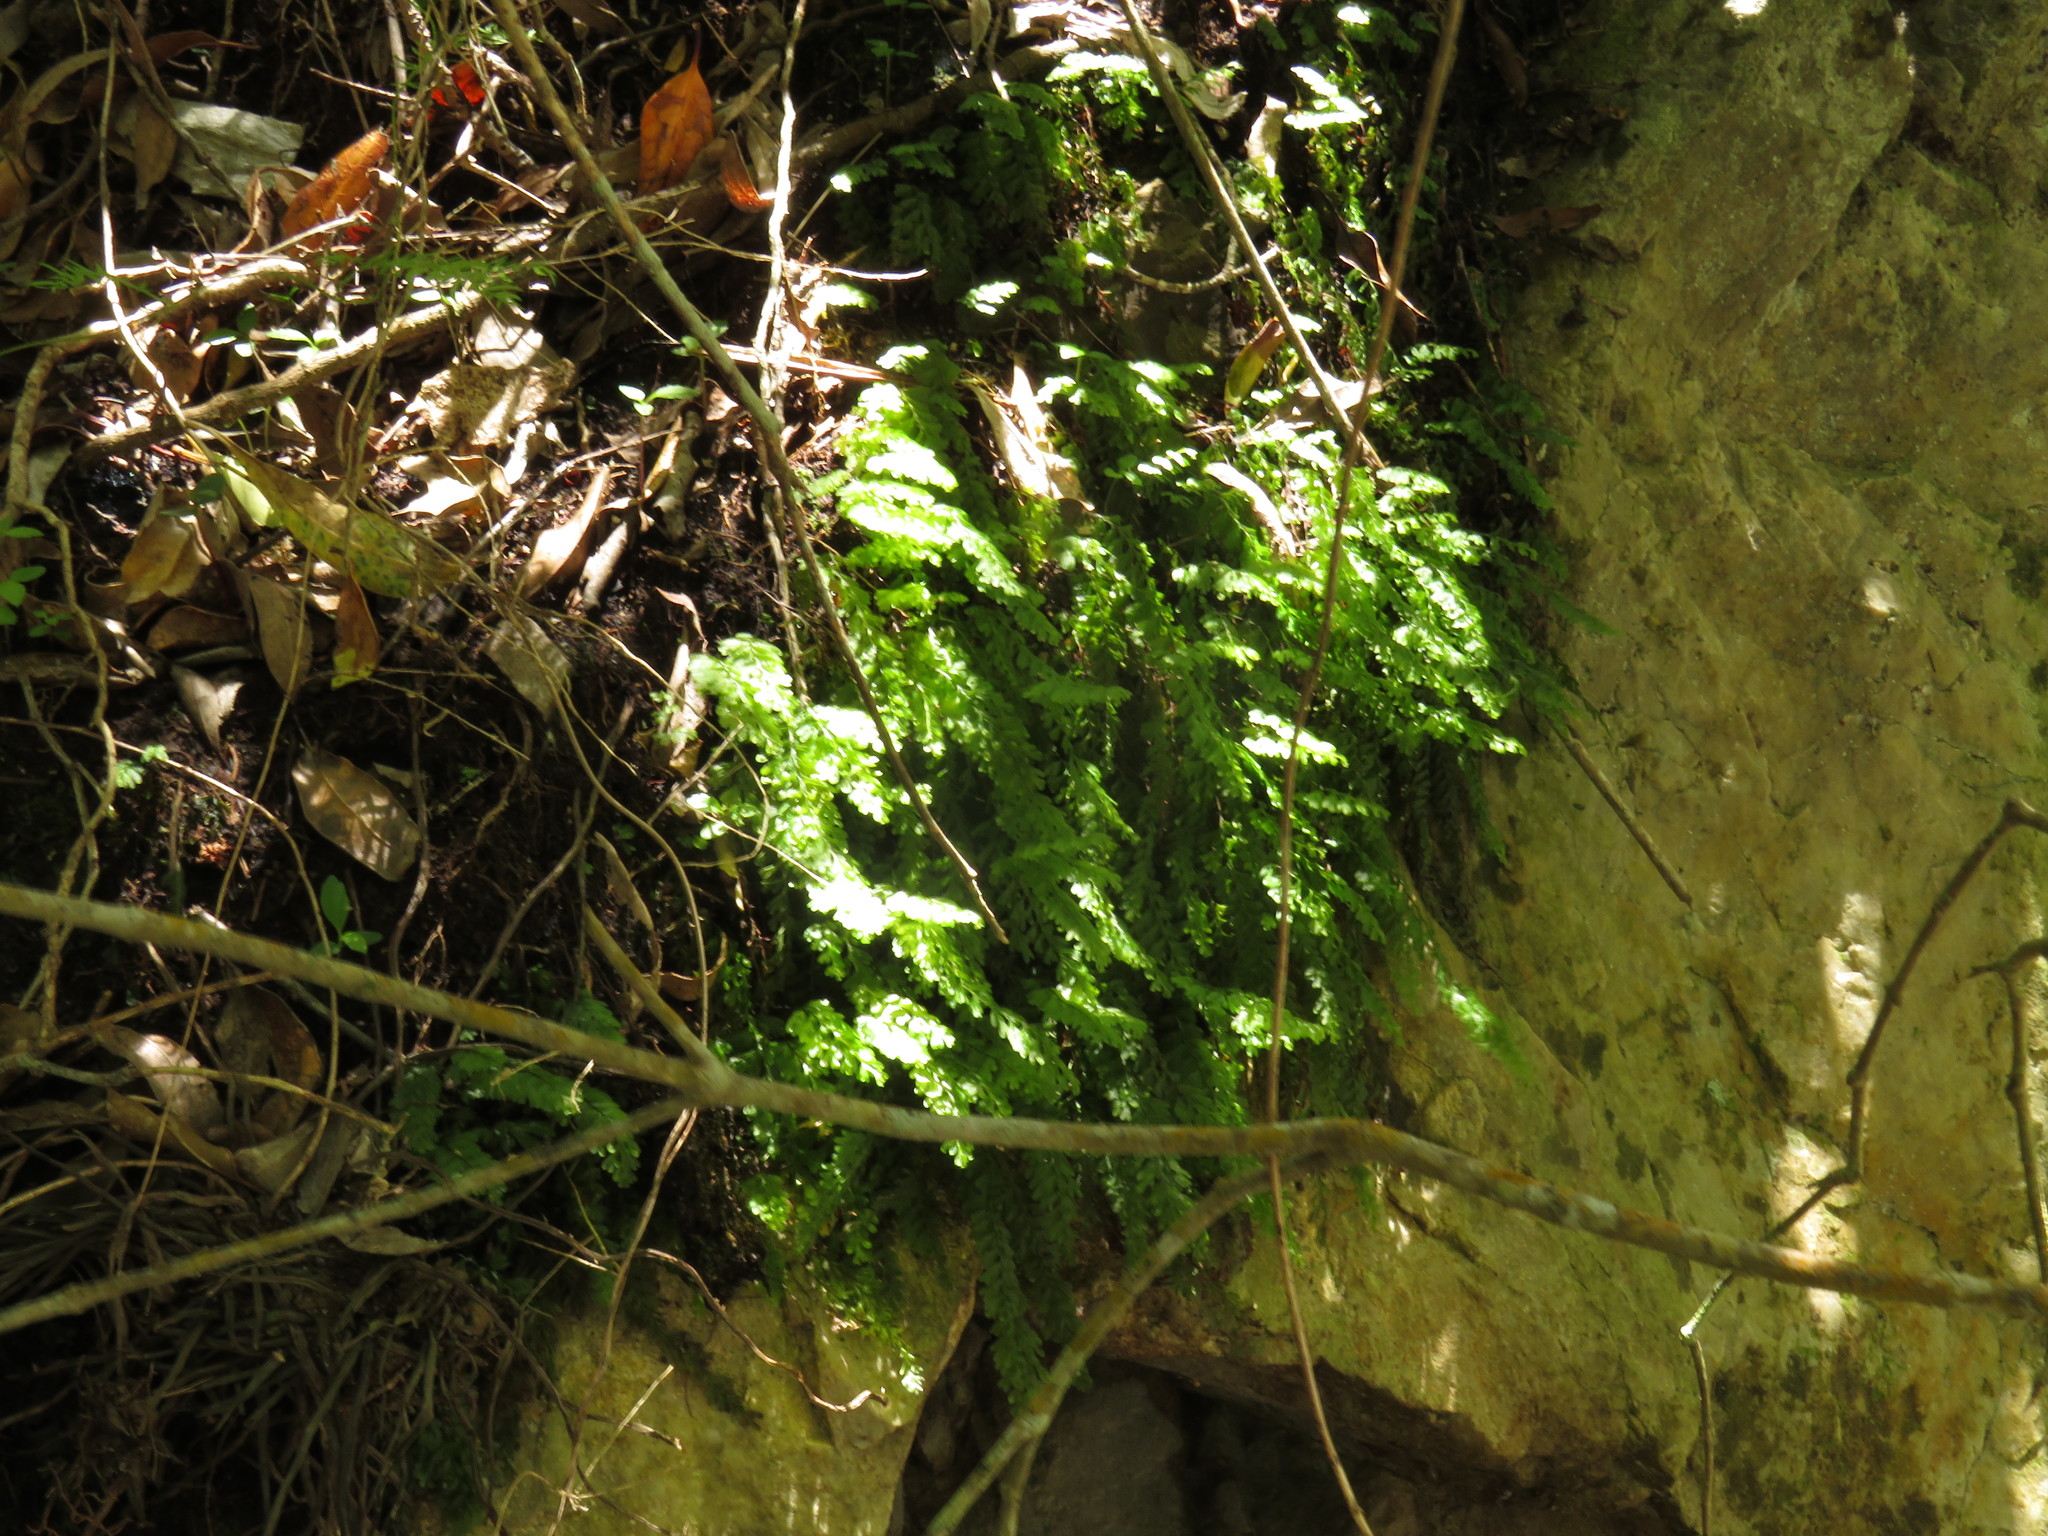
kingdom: Plantae
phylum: Tracheophyta
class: Polypodiopsida
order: Hymenophyllales
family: Hymenophyllaceae
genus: Hymenophyllum
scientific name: Hymenophyllum capense
